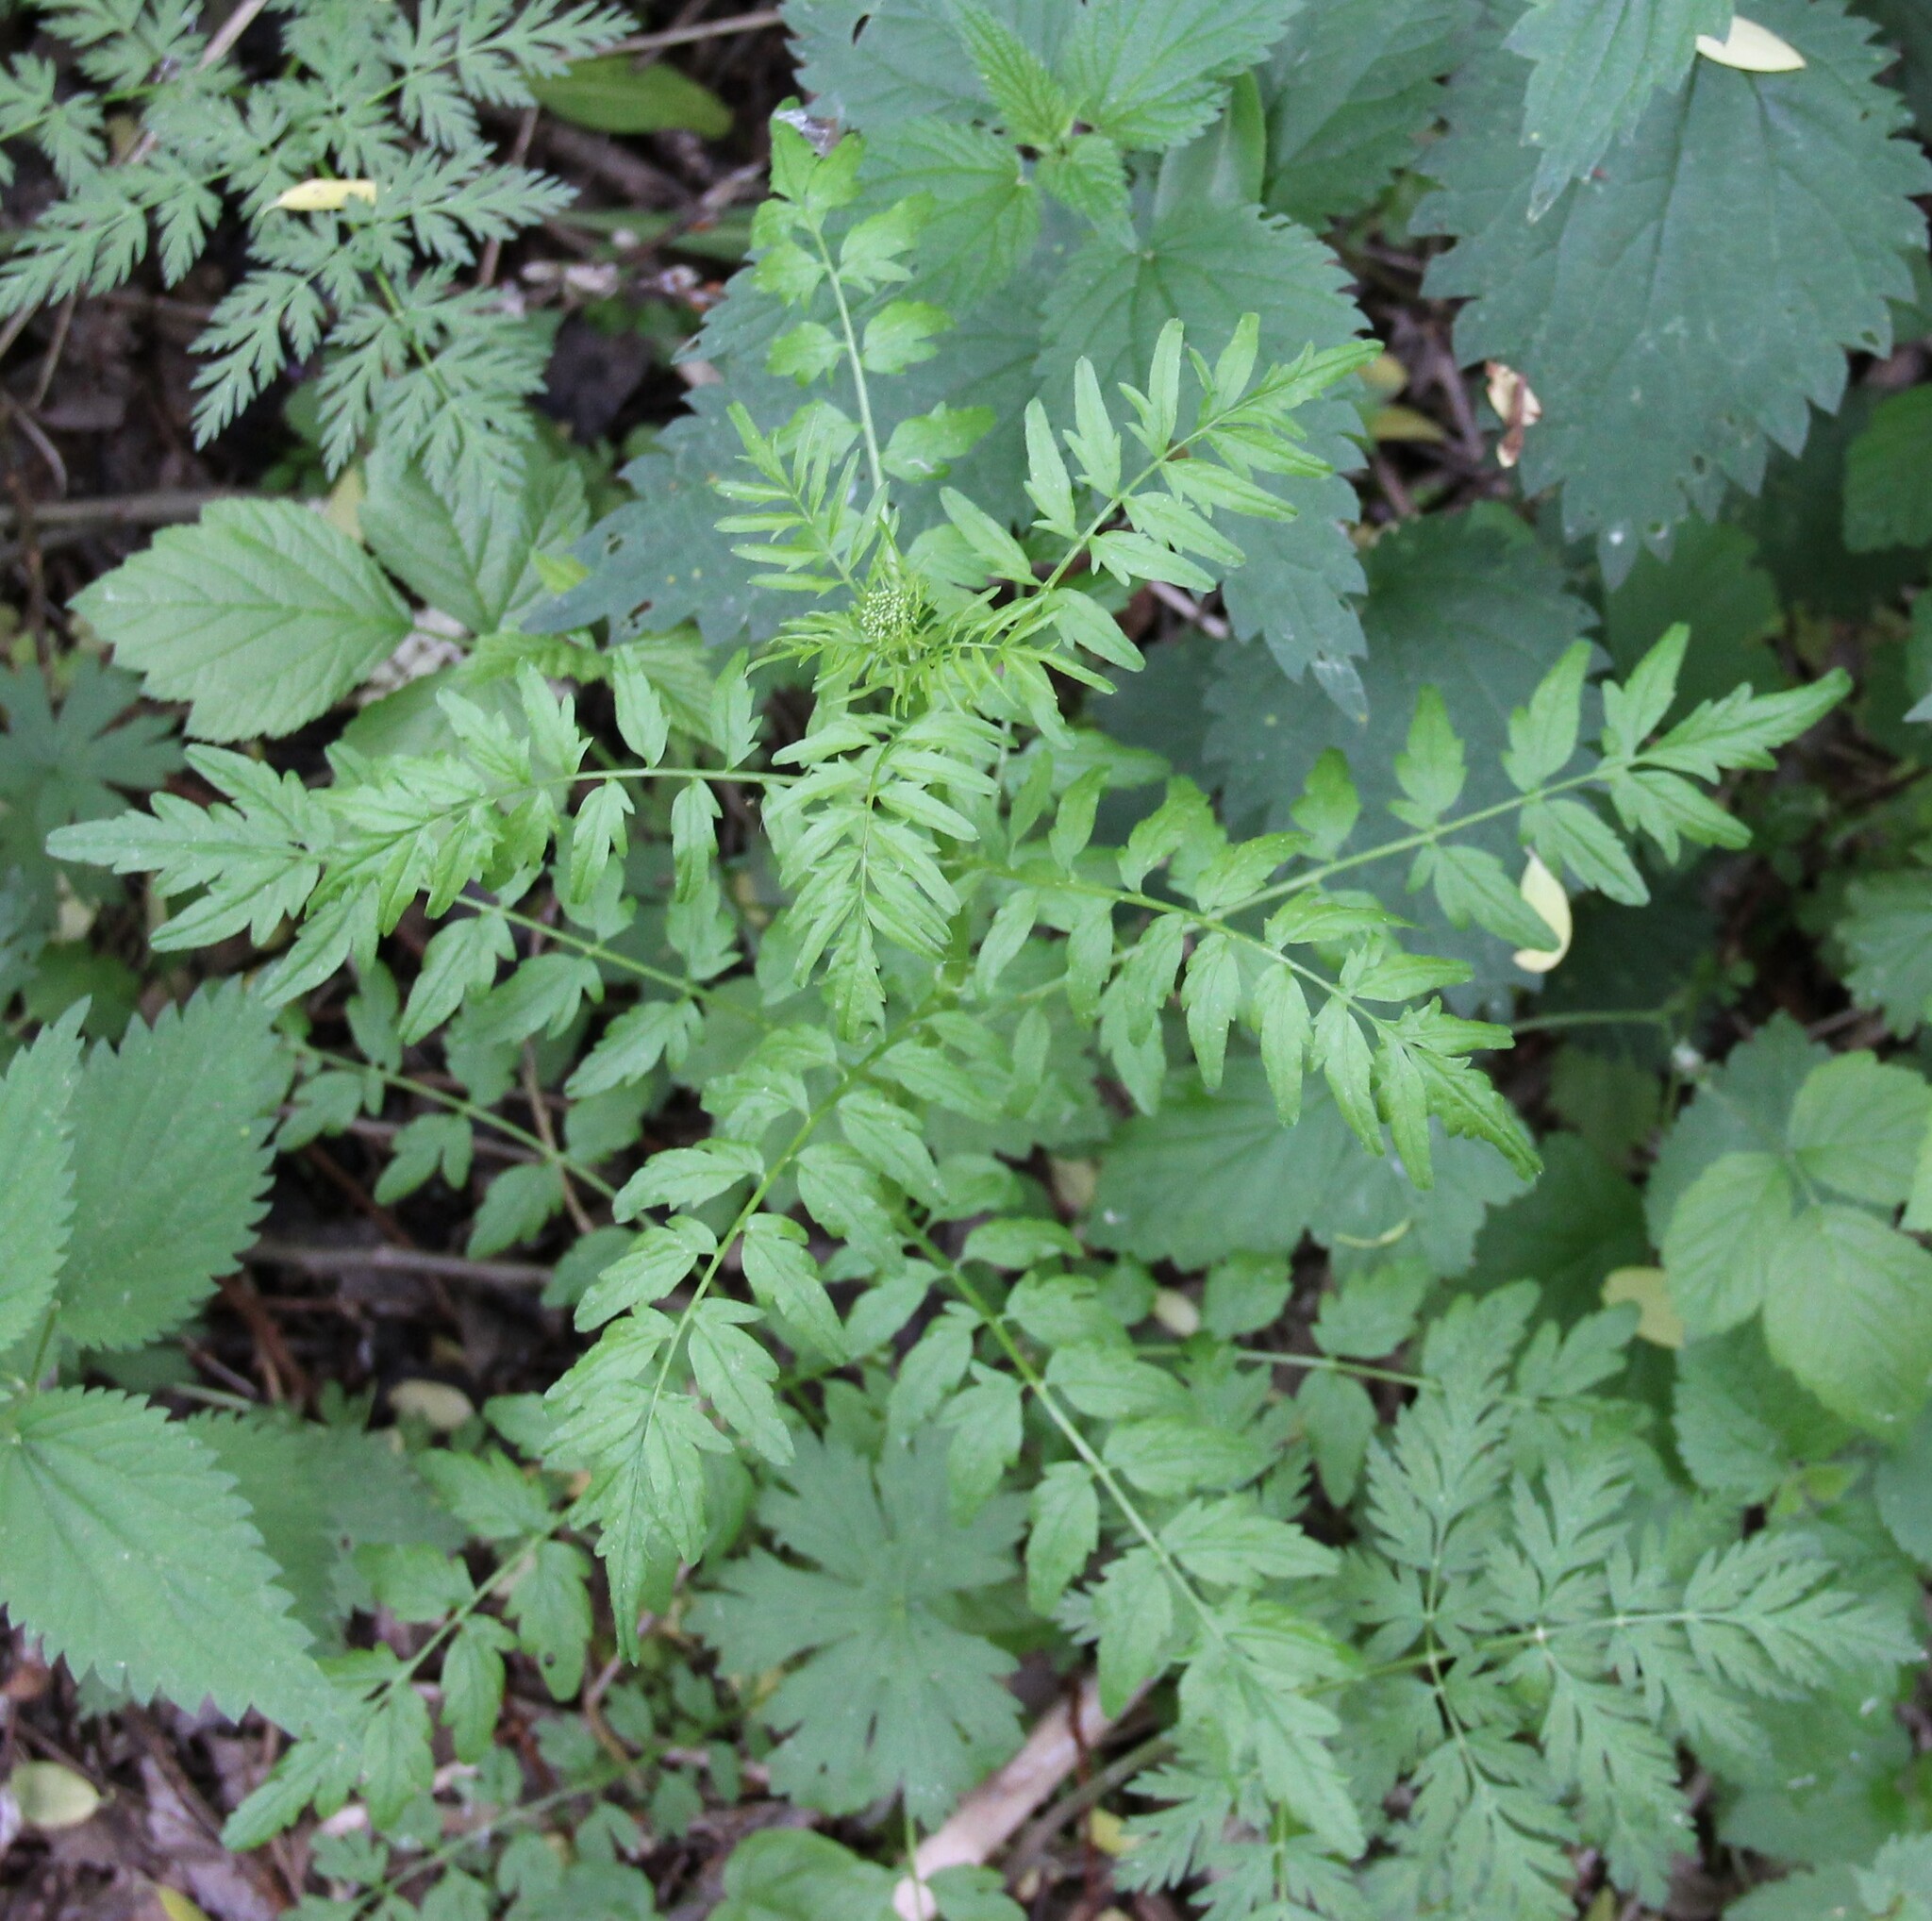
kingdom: Plantae
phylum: Tracheophyta
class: Magnoliopsida
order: Brassicales
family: Brassicaceae
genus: Cardamine
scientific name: Cardamine impatiens
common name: Narrow-leaved bitter-cress
